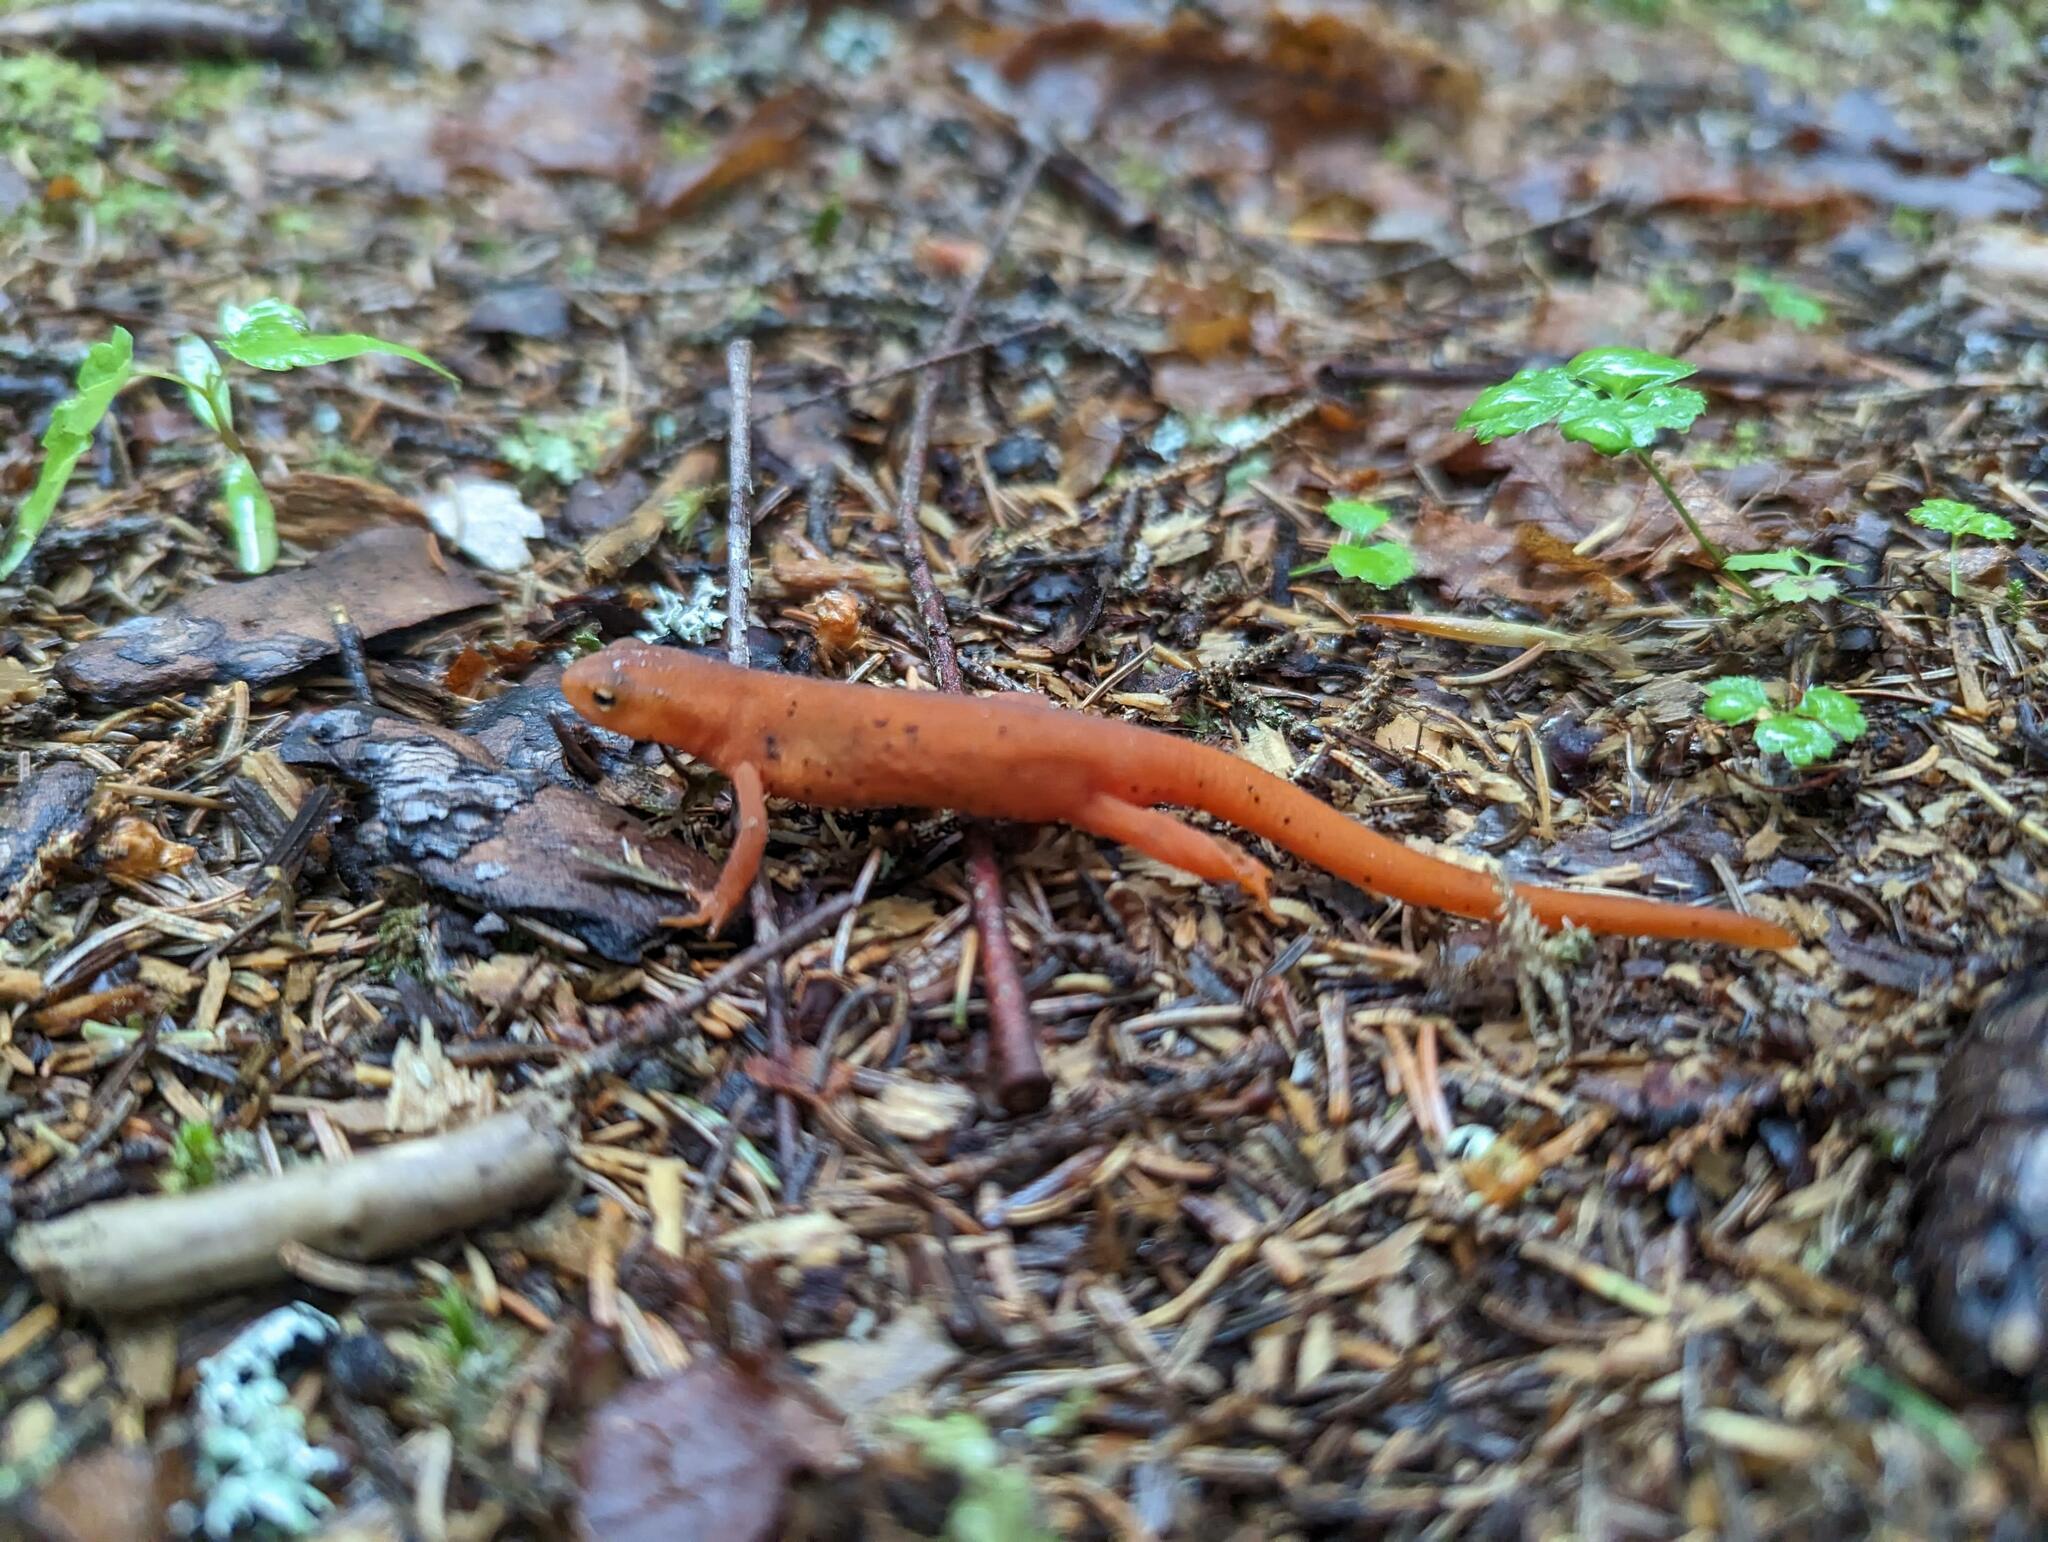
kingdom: Animalia
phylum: Chordata
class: Amphibia
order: Caudata
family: Salamandridae
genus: Notophthalmus
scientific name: Notophthalmus viridescens
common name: Eastern newt
